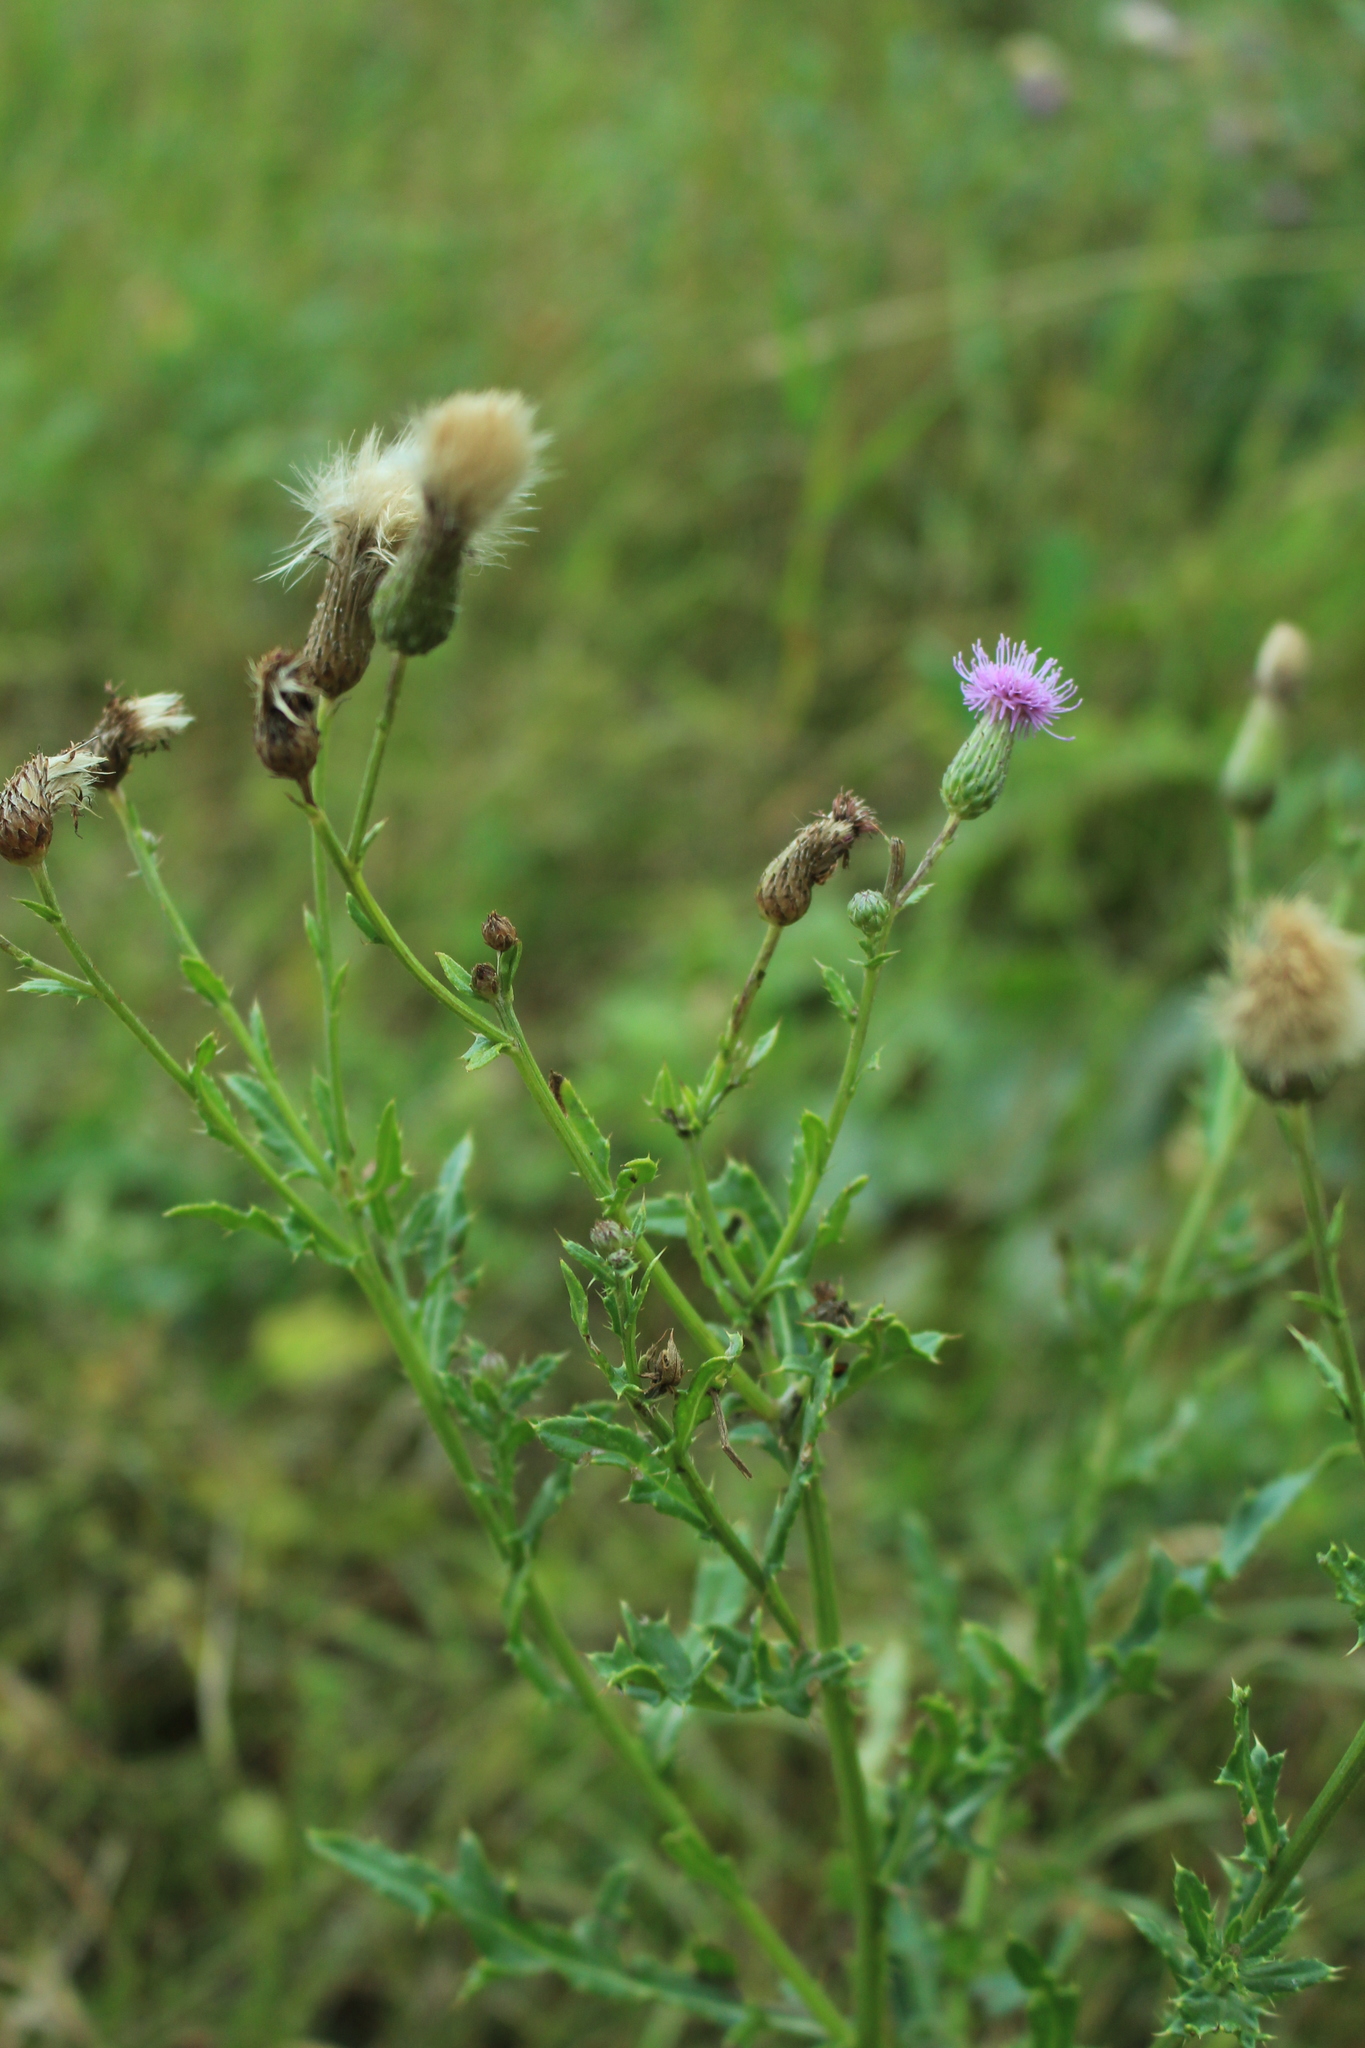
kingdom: Plantae
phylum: Tracheophyta
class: Magnoliopsida
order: Asterales
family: Asteraceae
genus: Cirsium
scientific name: Cirsium arvense
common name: Creeping thistle
